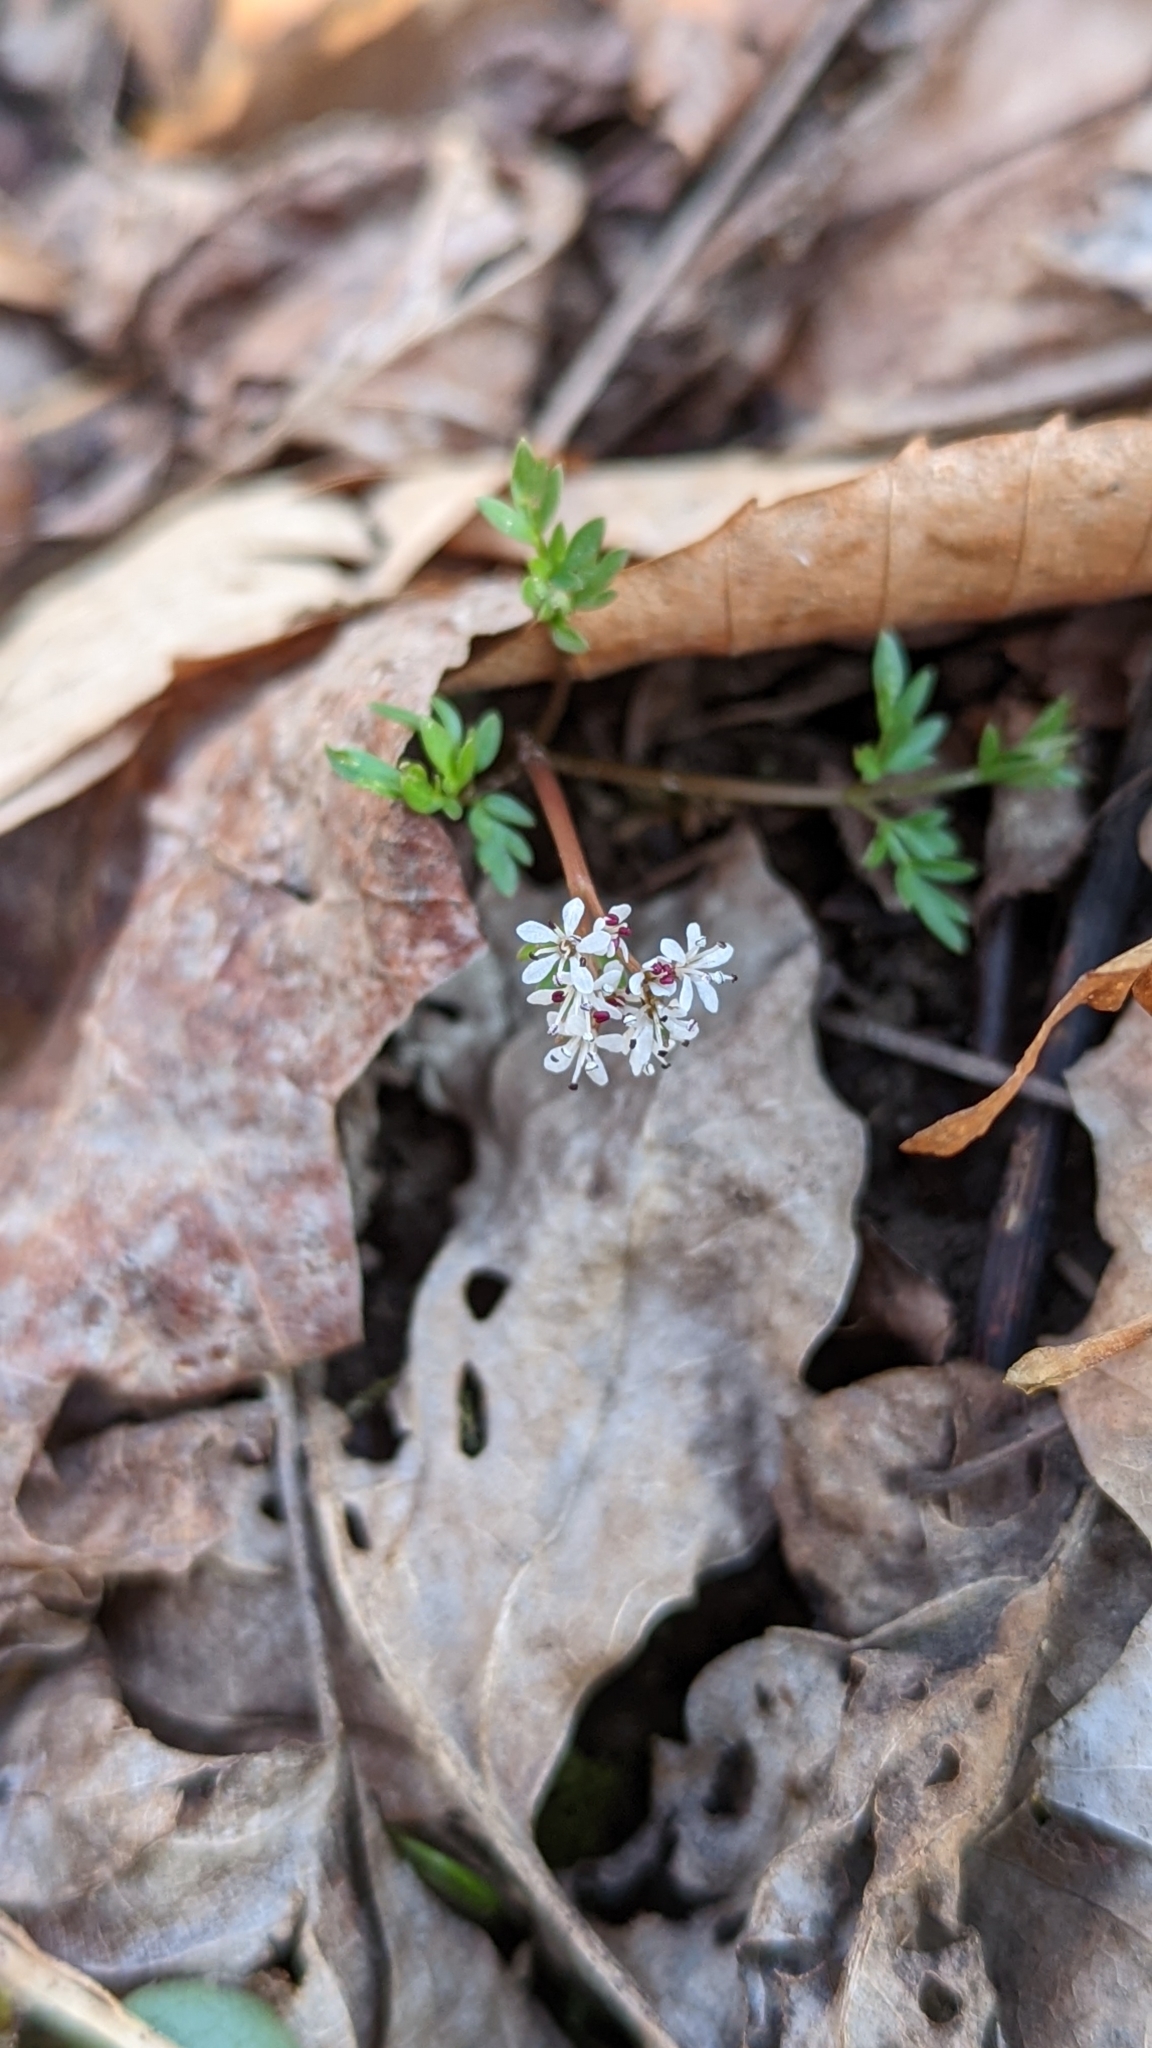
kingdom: Plantae
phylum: Tracheophyta
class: Magnoliopsida
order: Apiales
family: Apiaceae
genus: Erigenia
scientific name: Erigenia bulbosa
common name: Pepper-and-salt
